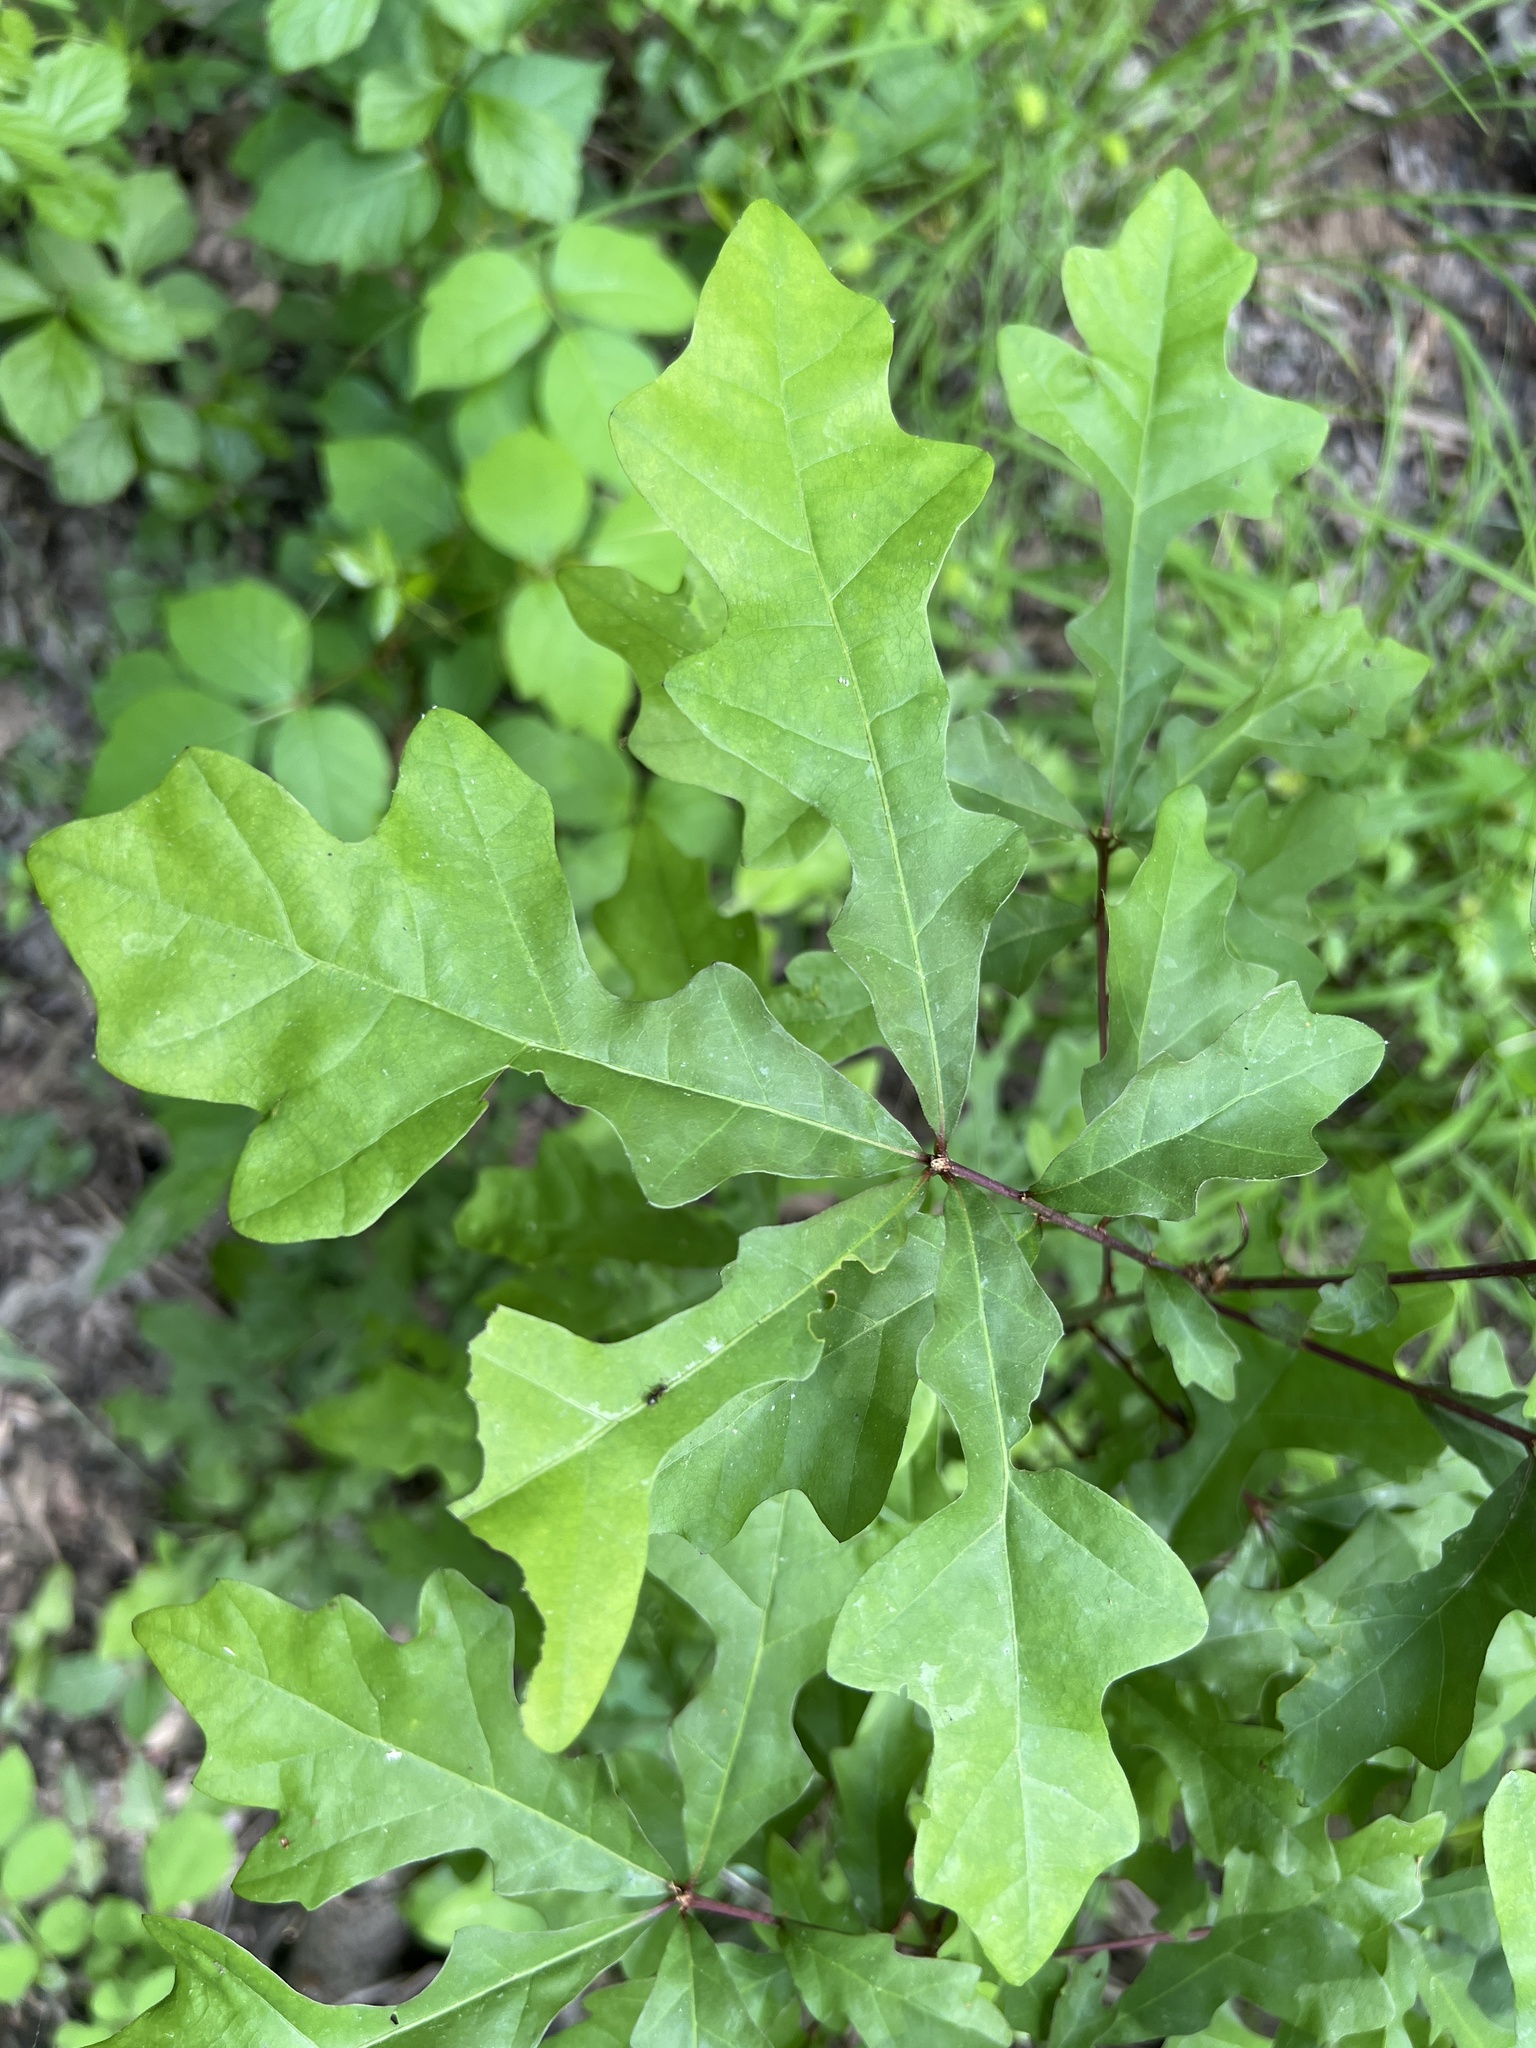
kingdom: Plantae
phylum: Tracheophyta
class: Magnoliopsida
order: Fagales
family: Fagaceae
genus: Quercus
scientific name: Quercus lyrata
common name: Overcup oak
